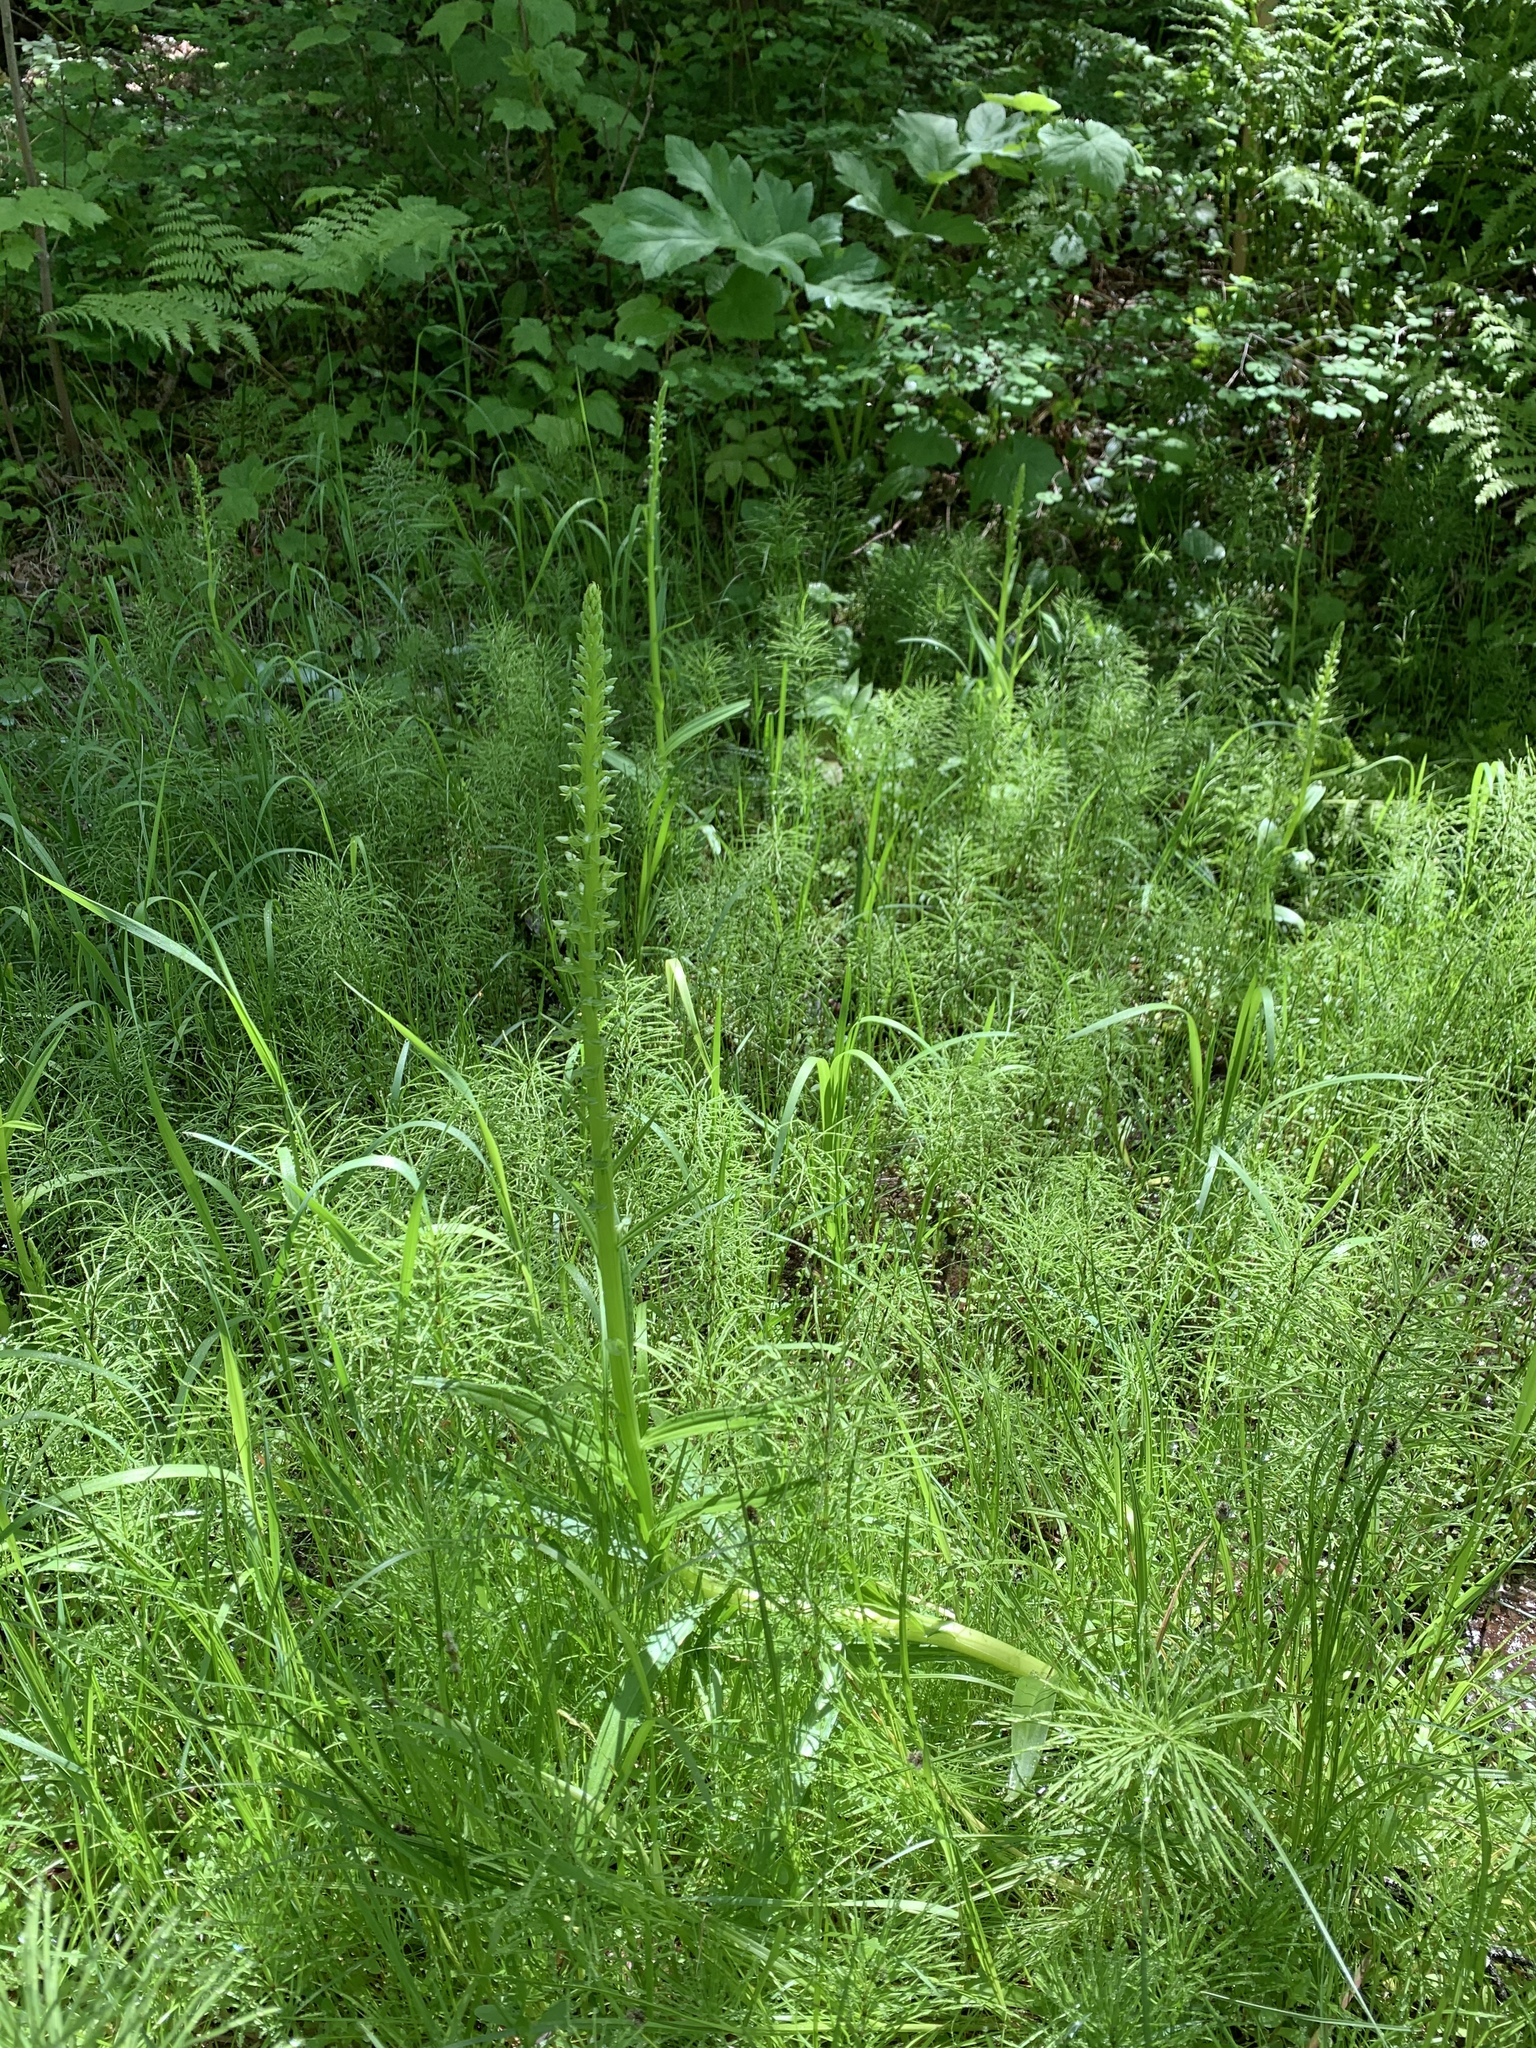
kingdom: Plantae
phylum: Tracheophyta
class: Liliopsida
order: Asparagales
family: Orchidaceae
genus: Platanthera
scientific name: Platanthera stricta
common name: Slender bog orchid
